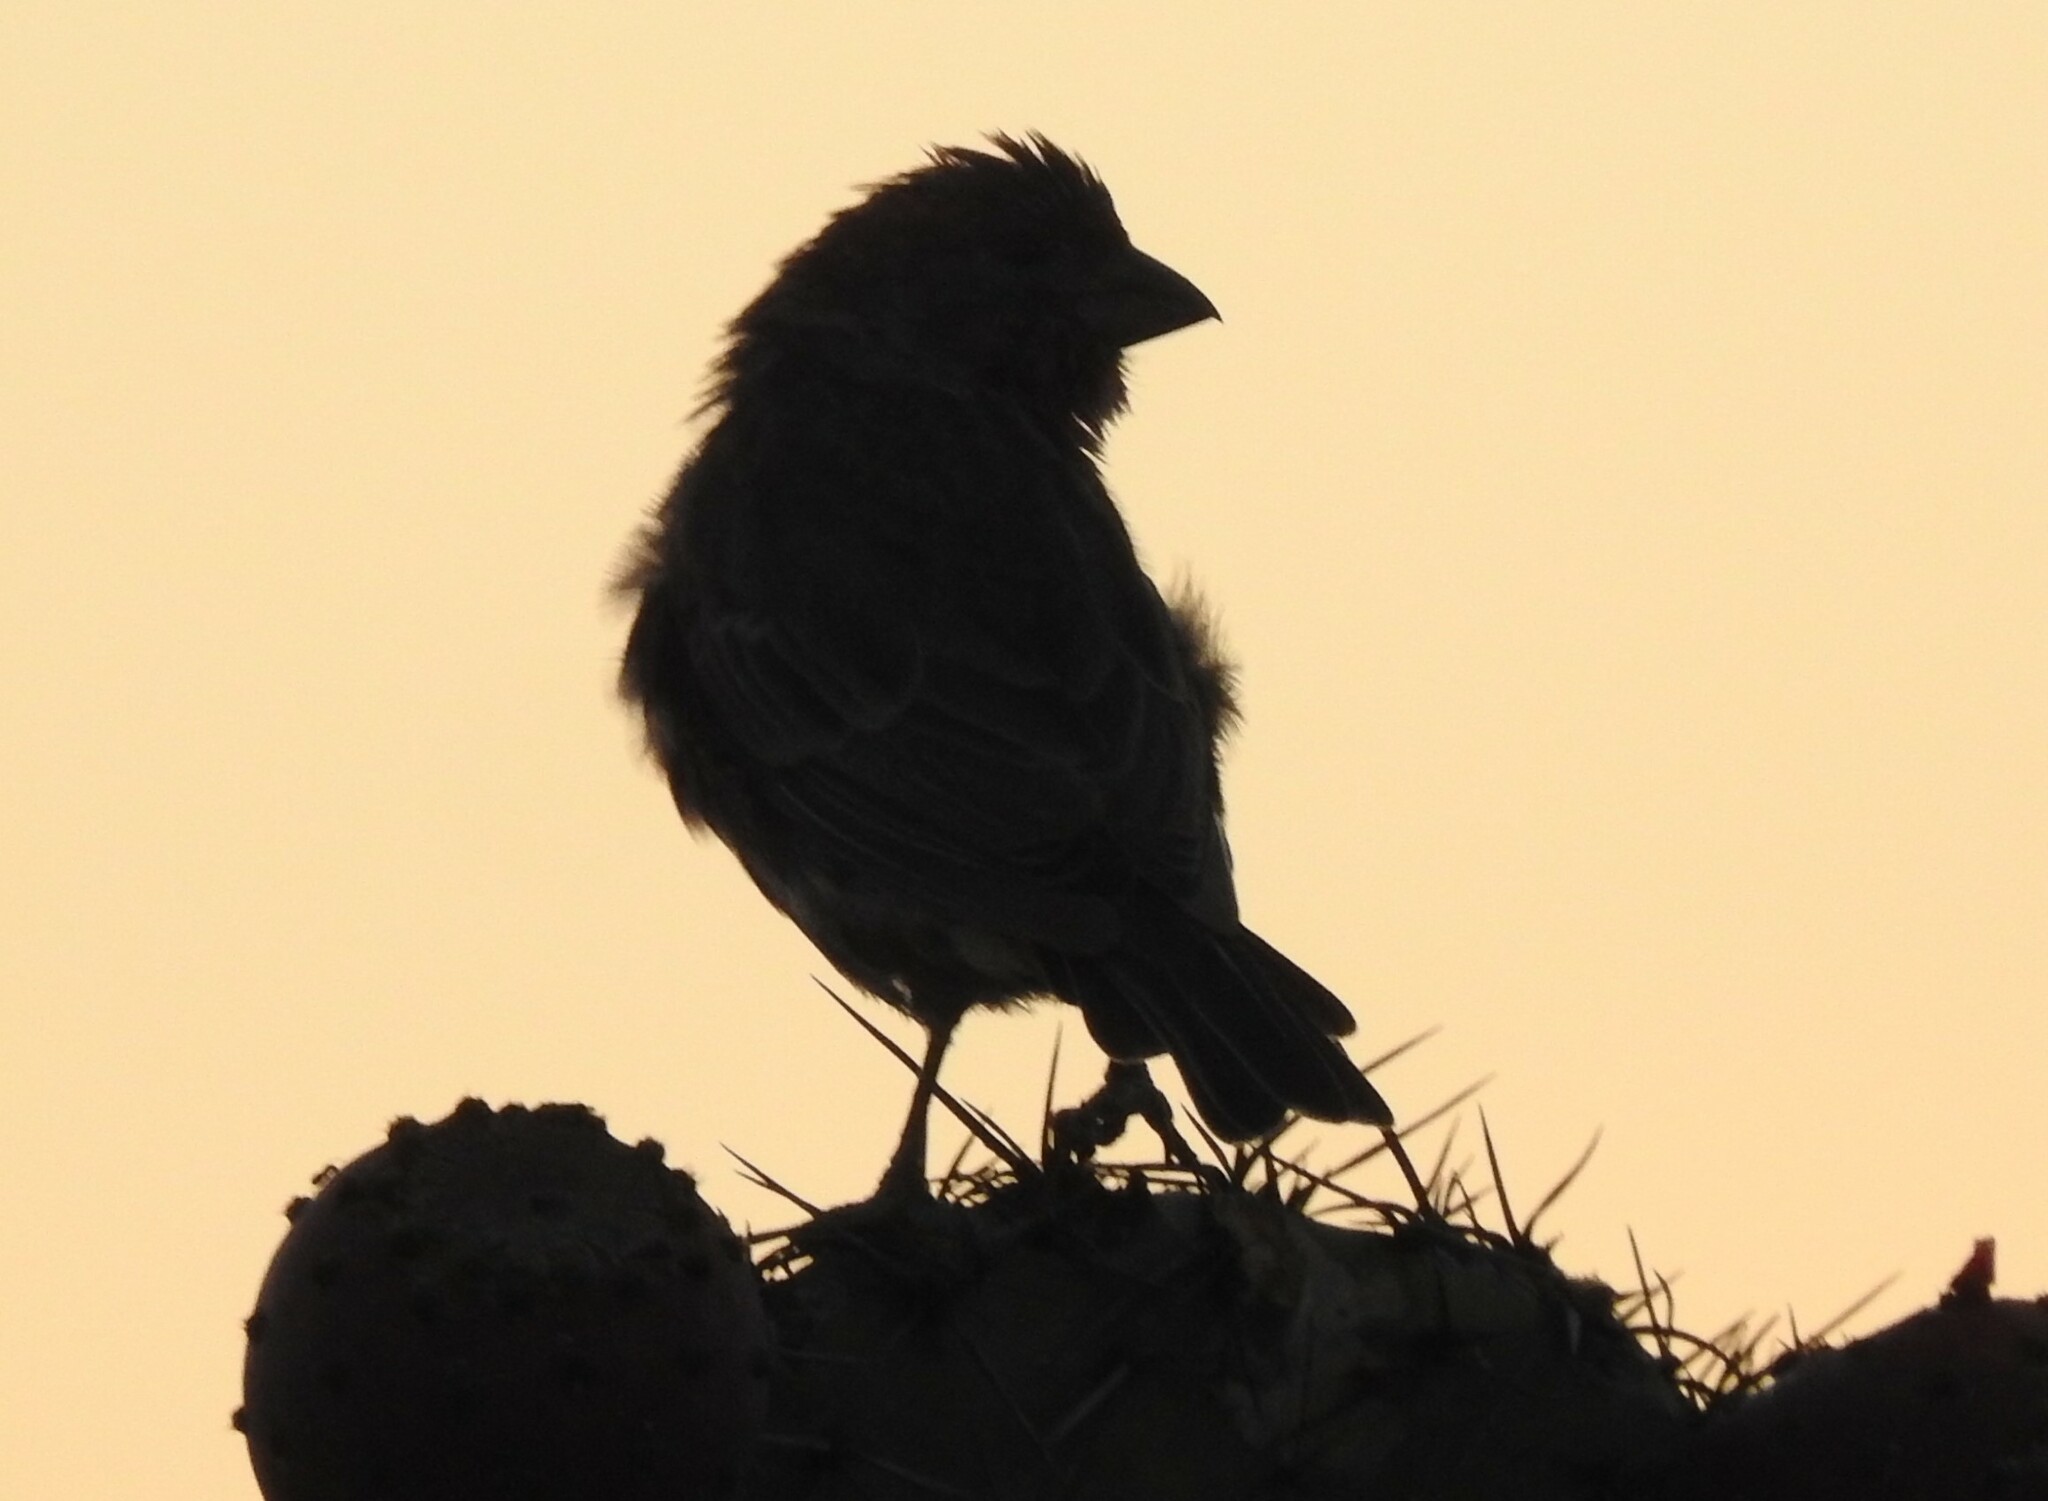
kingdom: Animalia
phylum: Chordata
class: Aves
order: Passeriformes
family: Fringillidae
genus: Haemorhous
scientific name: Haemorhous mexicanus
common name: House finch
